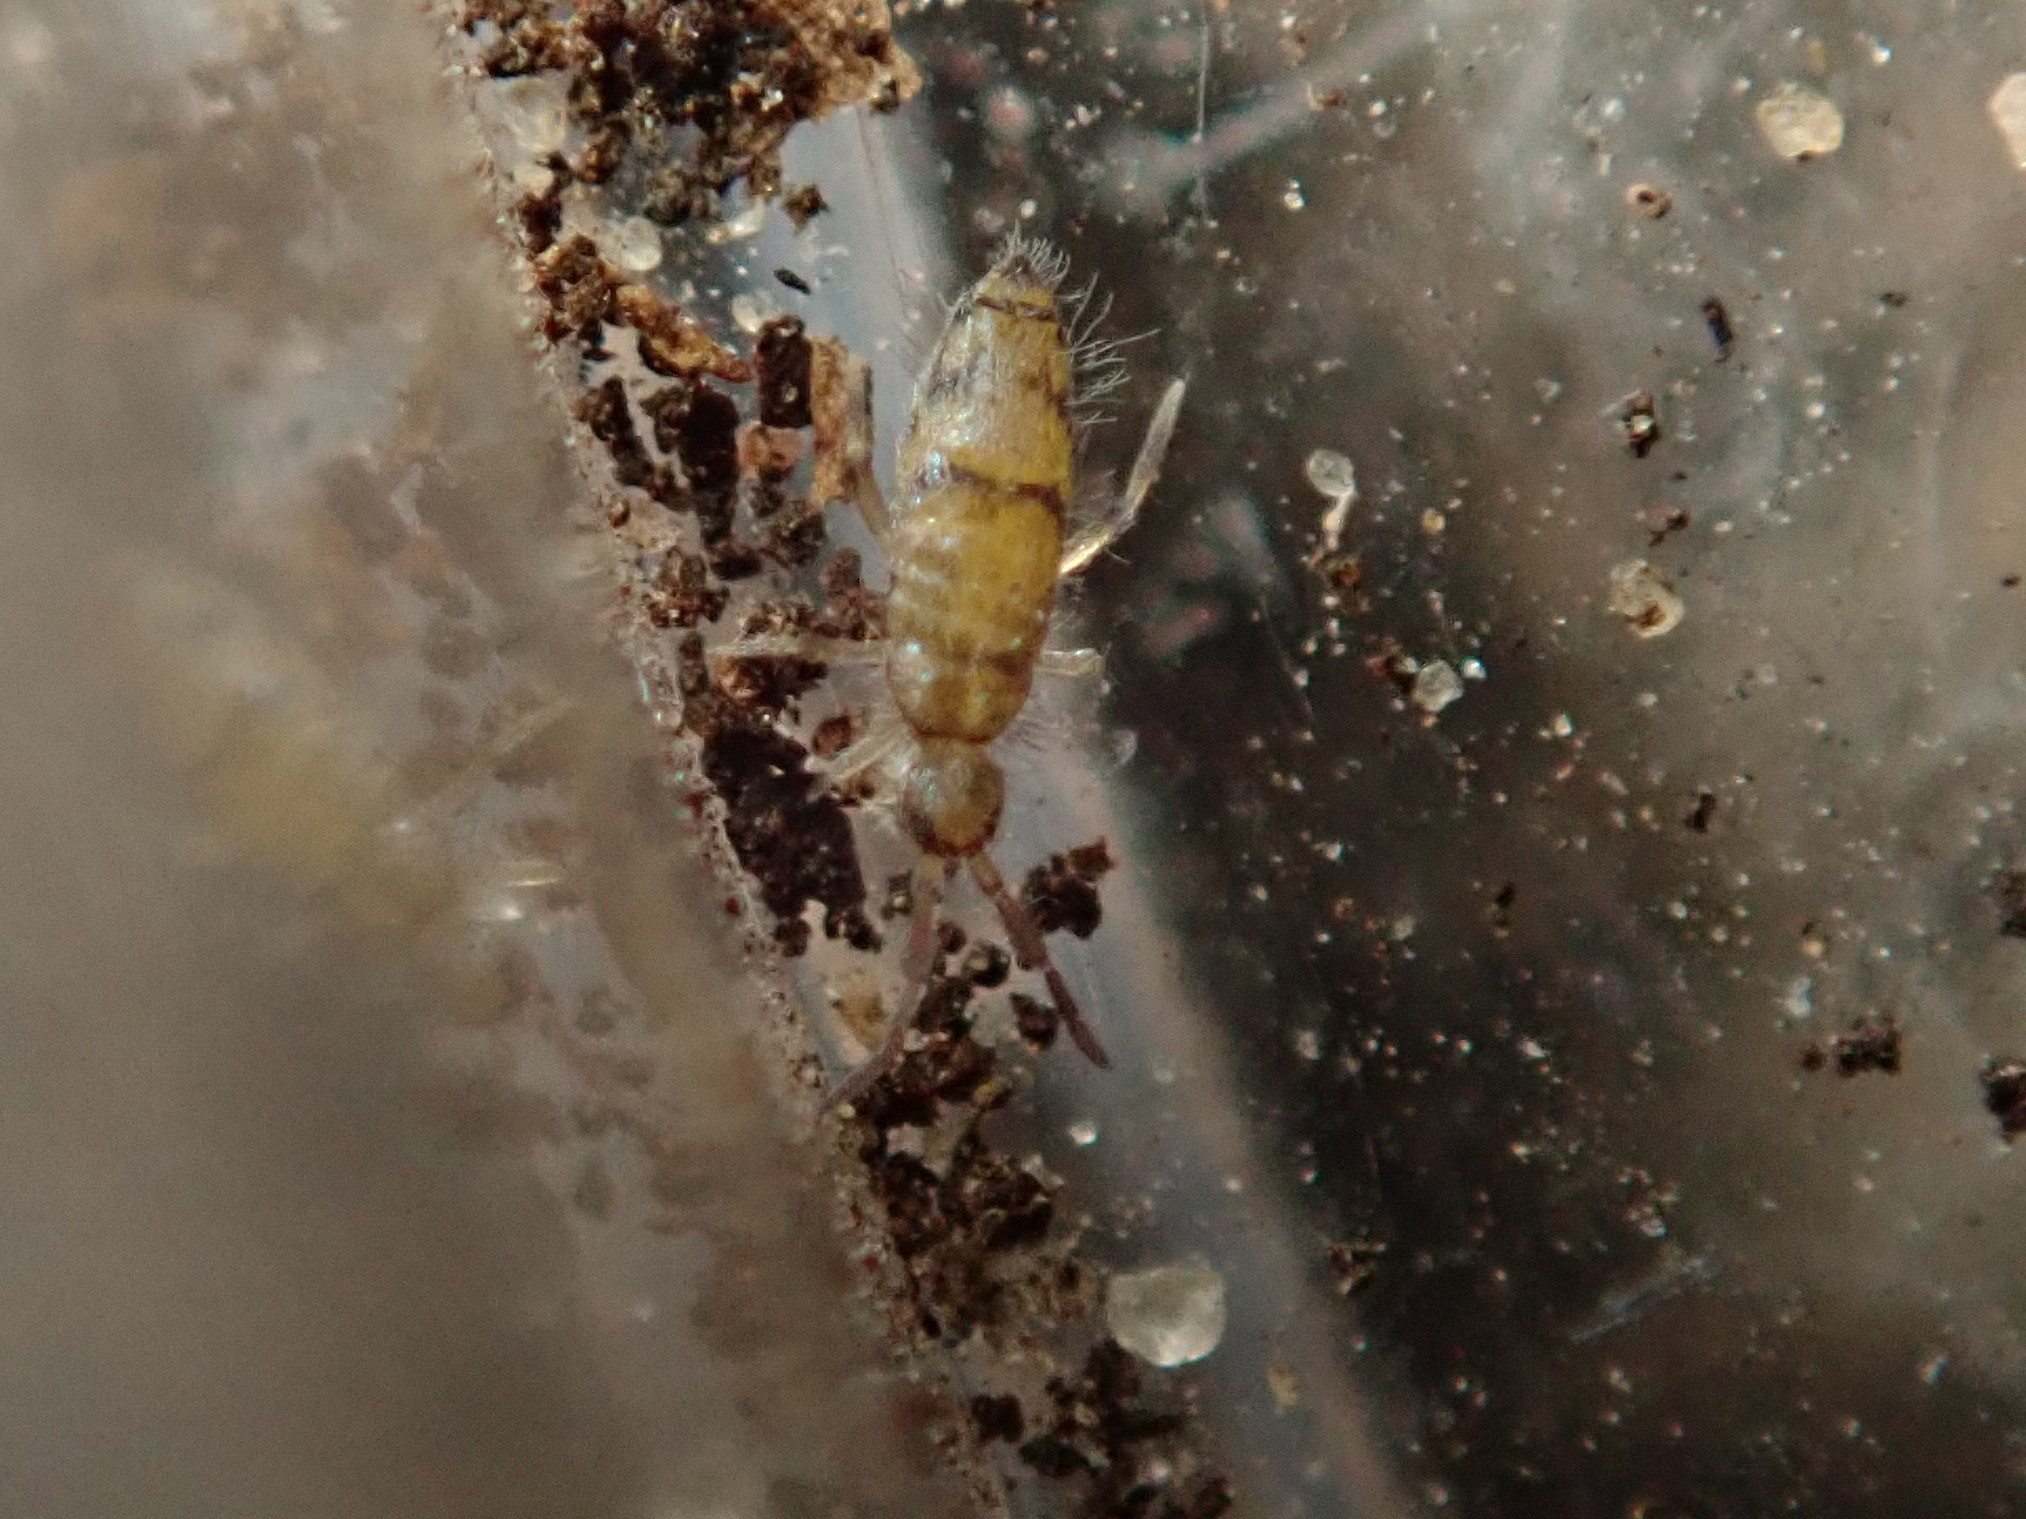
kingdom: Animalia
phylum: Arthropoda
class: Collembola
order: Entomobryomorpha
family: Entomobryidae
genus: Willowsia
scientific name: Willowsia nigromaculata
